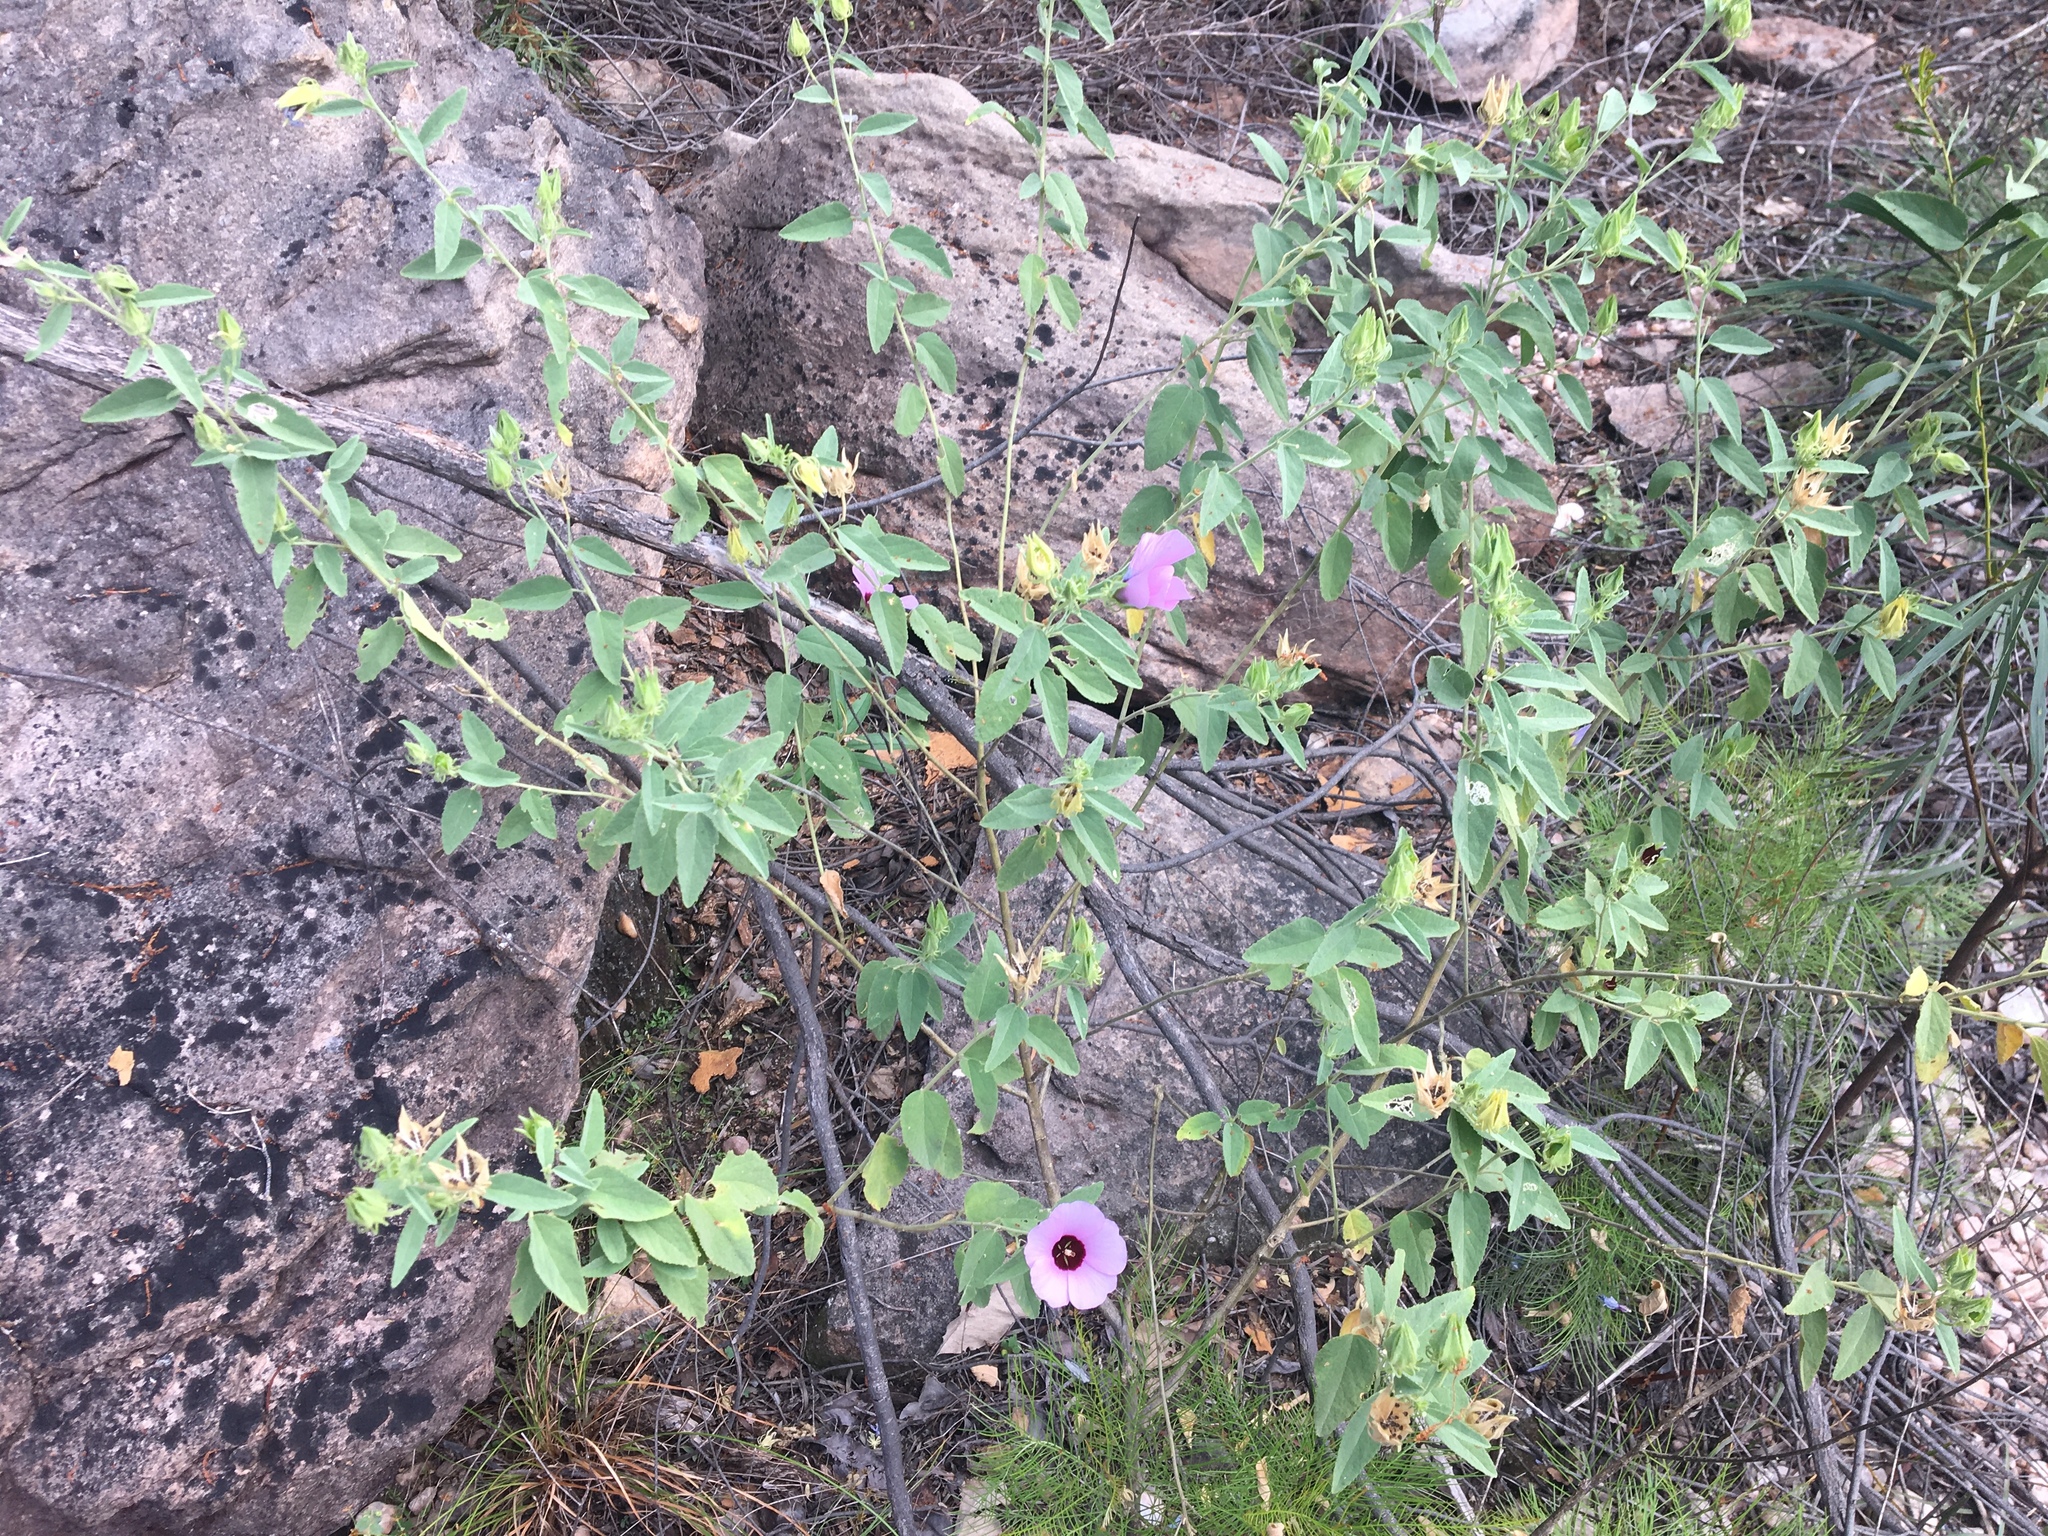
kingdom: Plantae
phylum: Tracheophyta
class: Magnoliopsida
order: Malvales
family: Malvaceae
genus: Cienfuegosia
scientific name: Cienfuegosia australis
